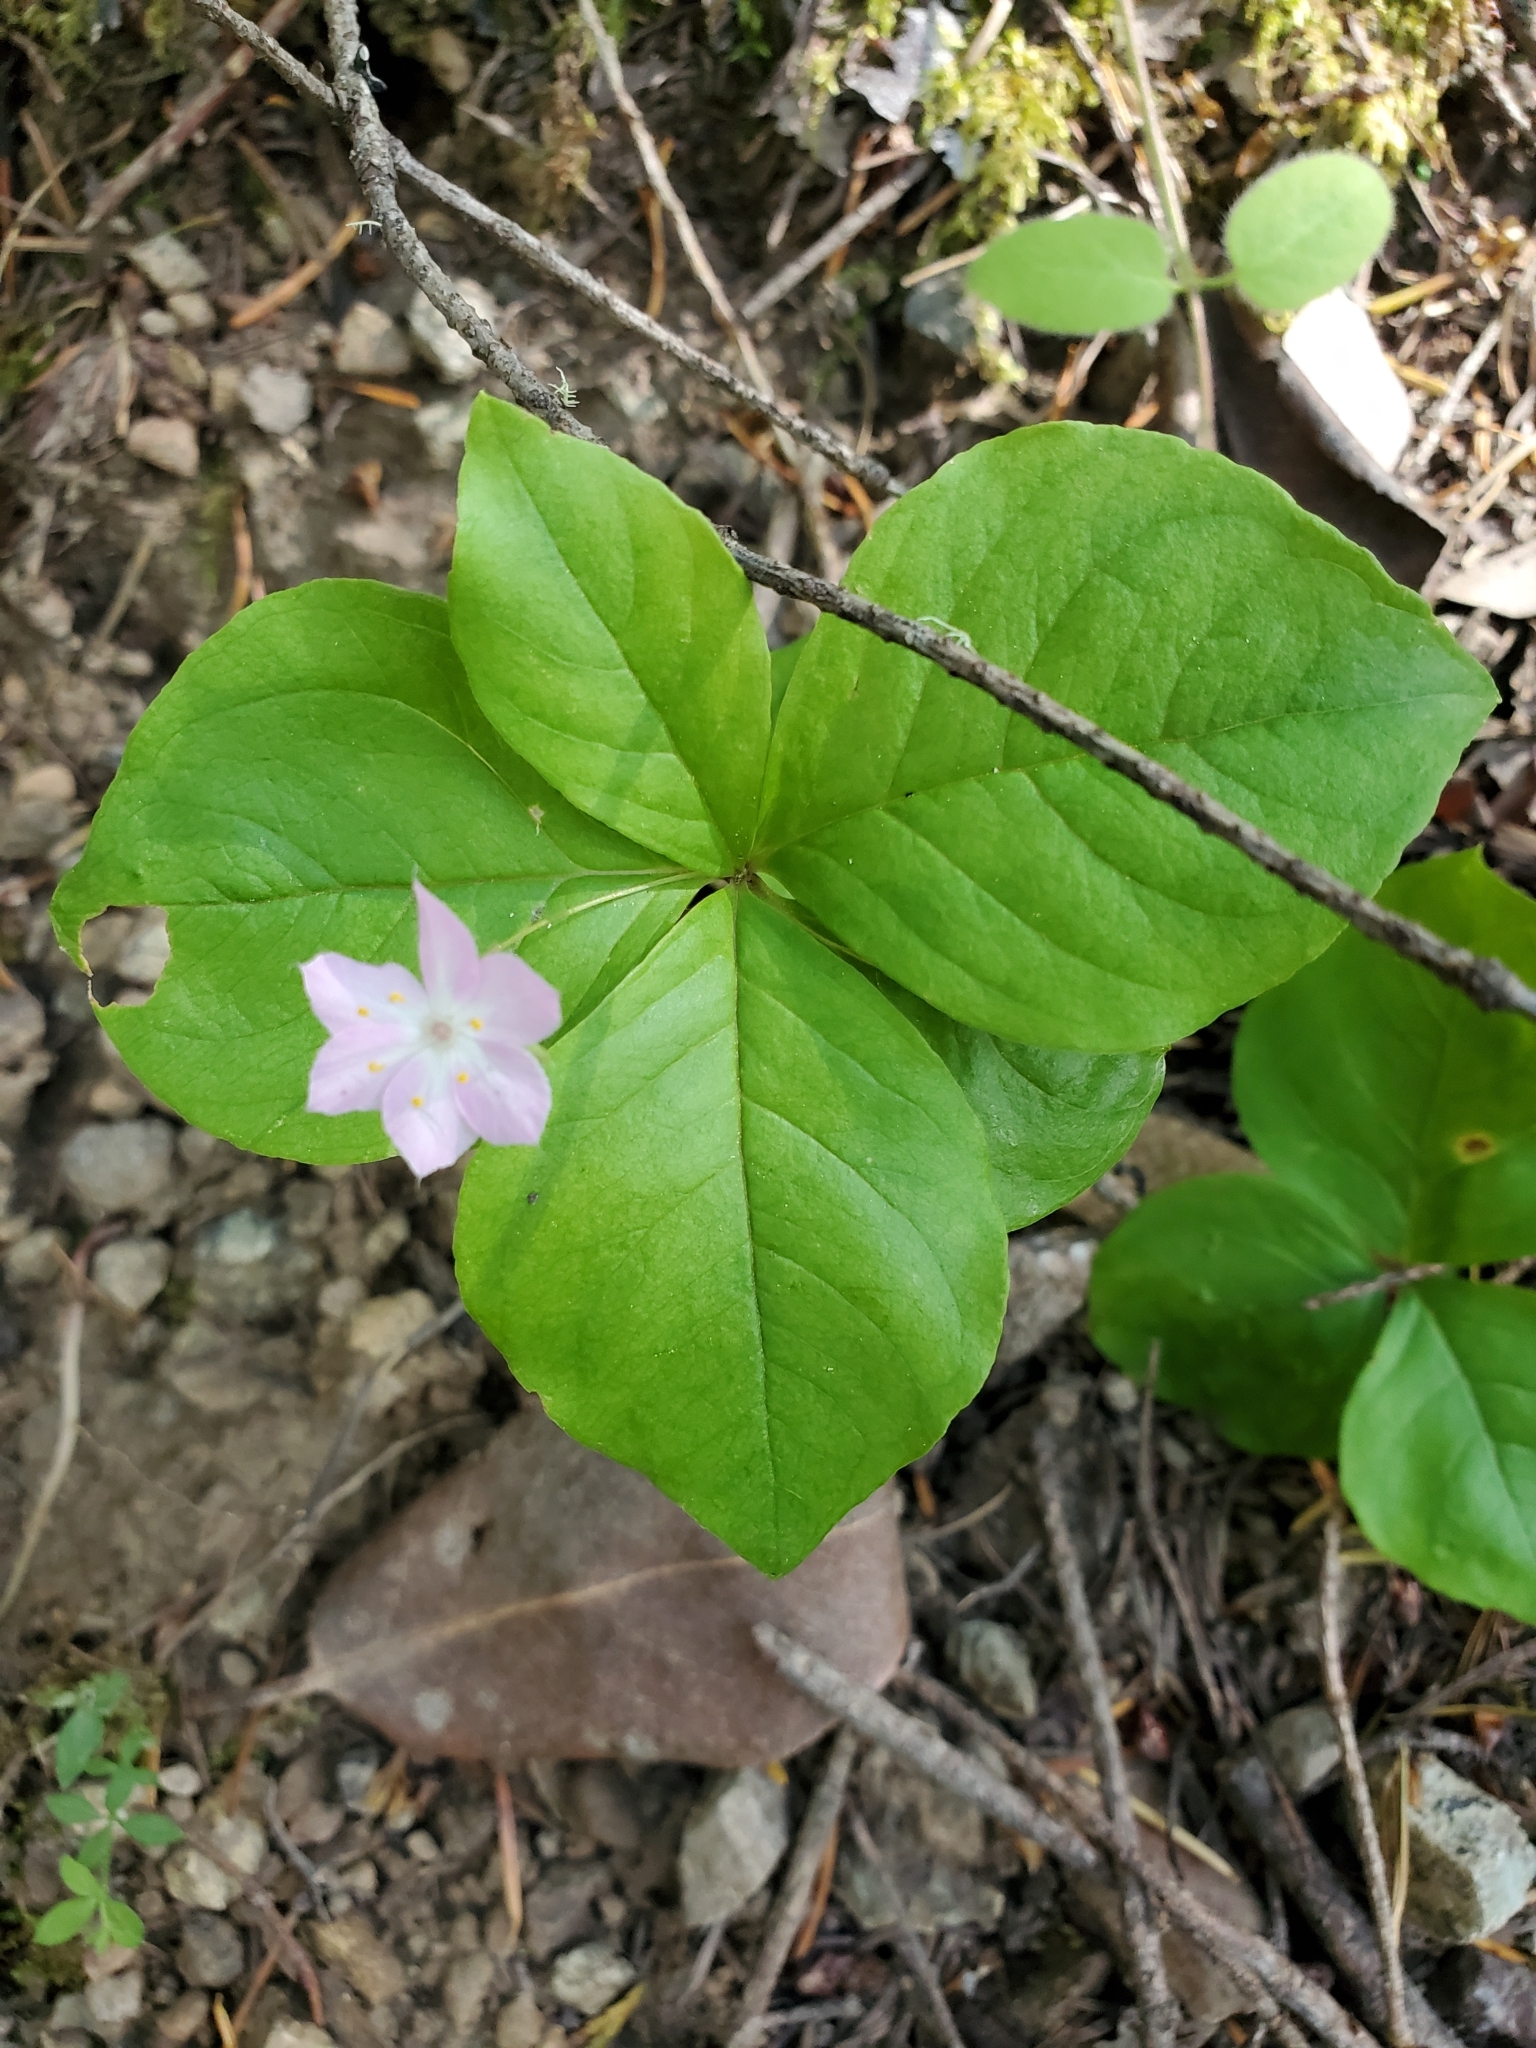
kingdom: Plantae
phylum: Tracheophyta
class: Magnoliopsida
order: Ericales
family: Primulaceae
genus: Lysimachia
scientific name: Lysimachia latifolia
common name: Pacific starflower
